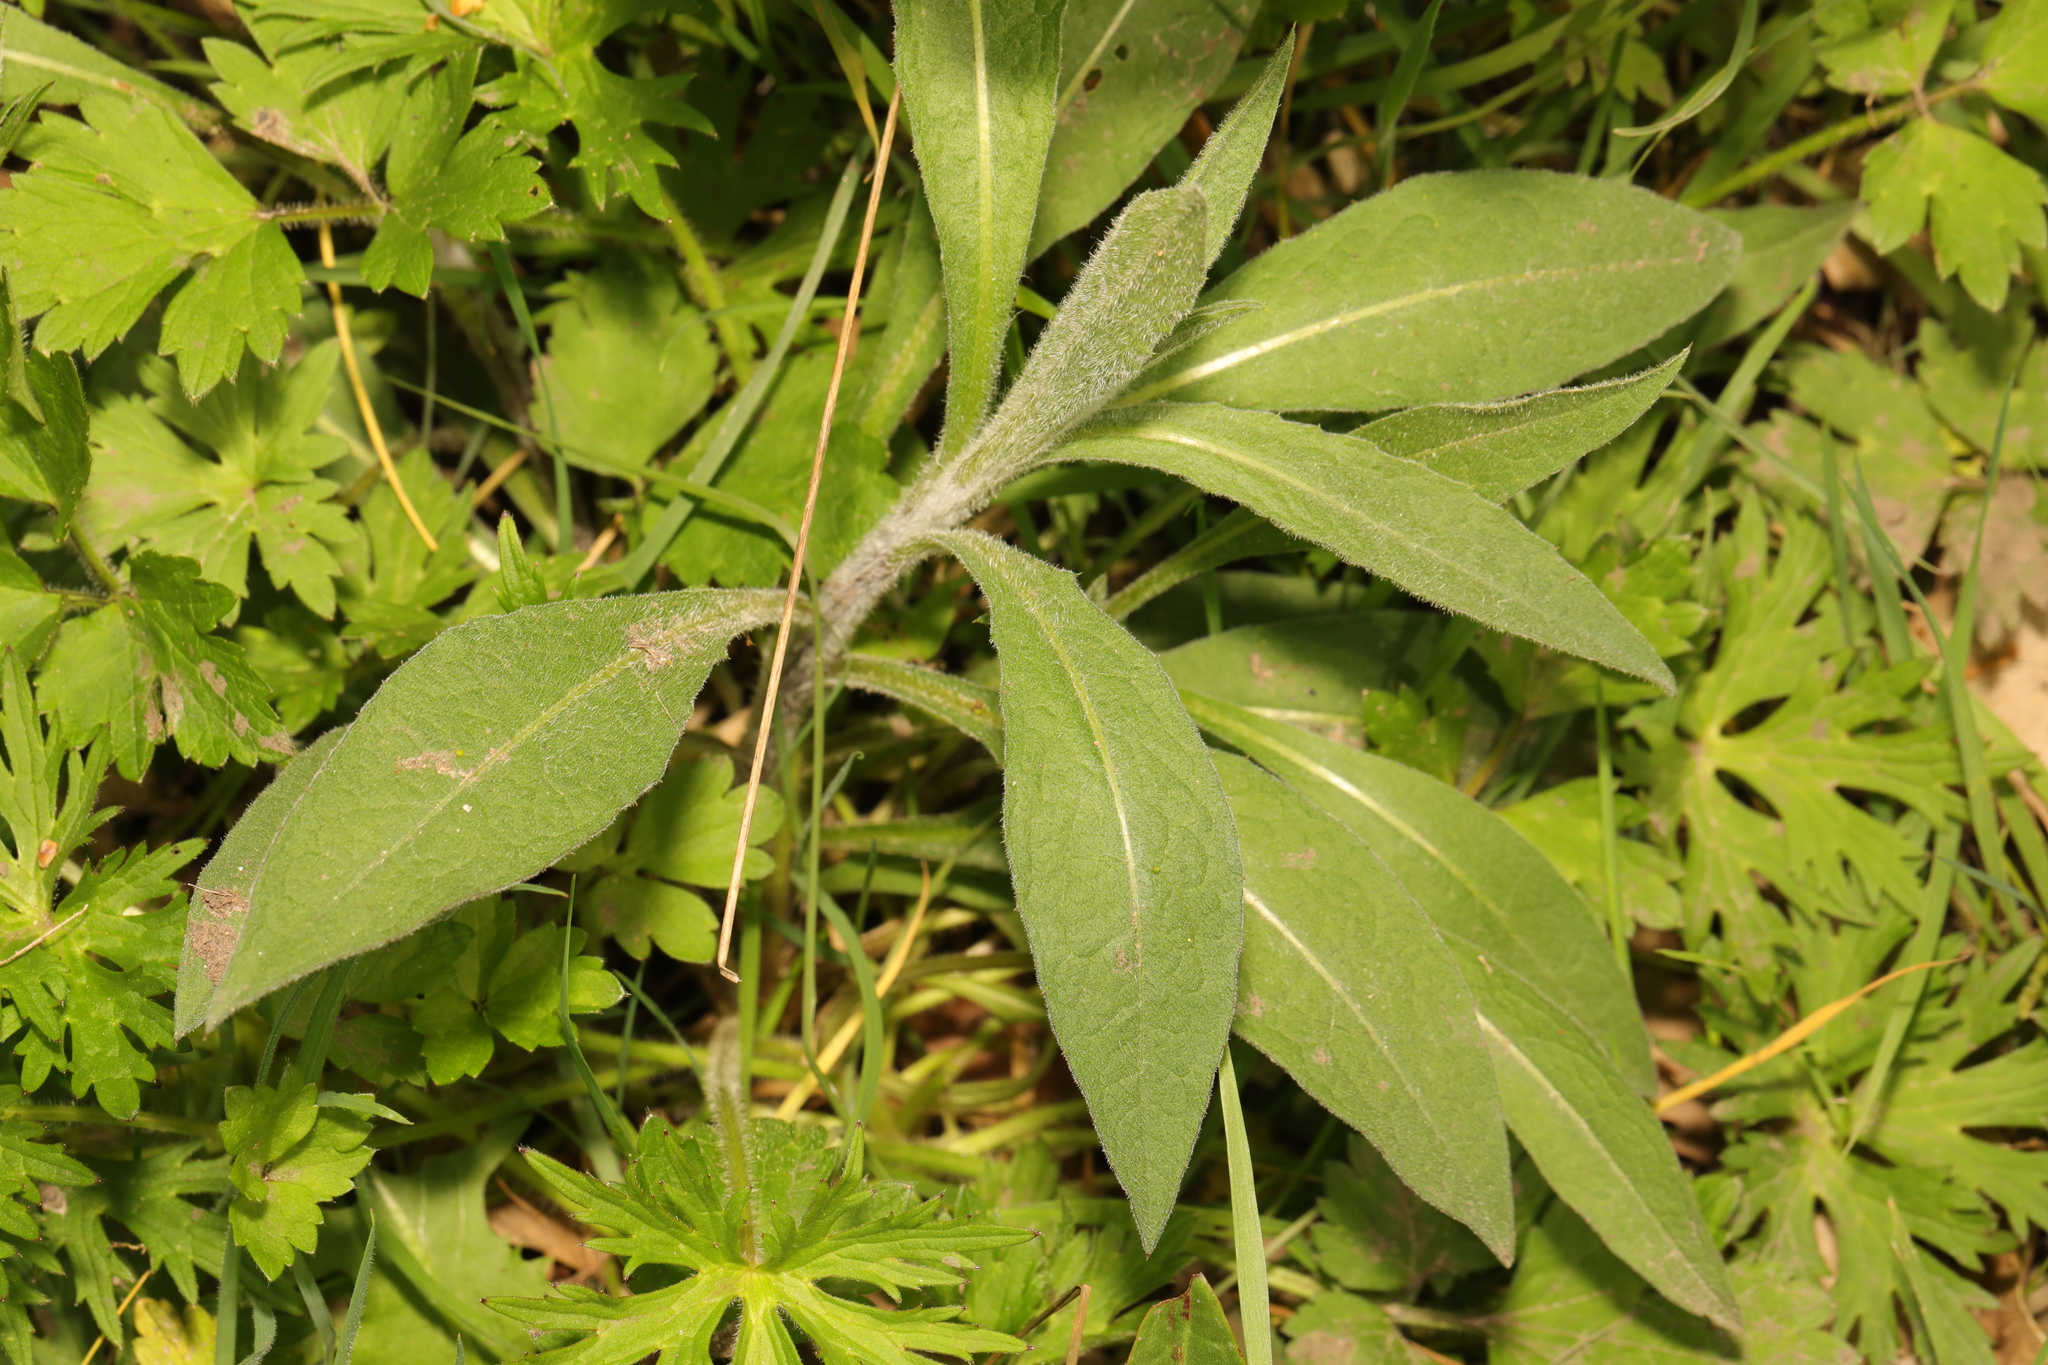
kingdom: Plantae
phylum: Tracheophyta
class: Magnoliopsida
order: Asterales
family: Asteraceae
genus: Centaurea
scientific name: Centaurea nigra
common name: Lesser knapweed
